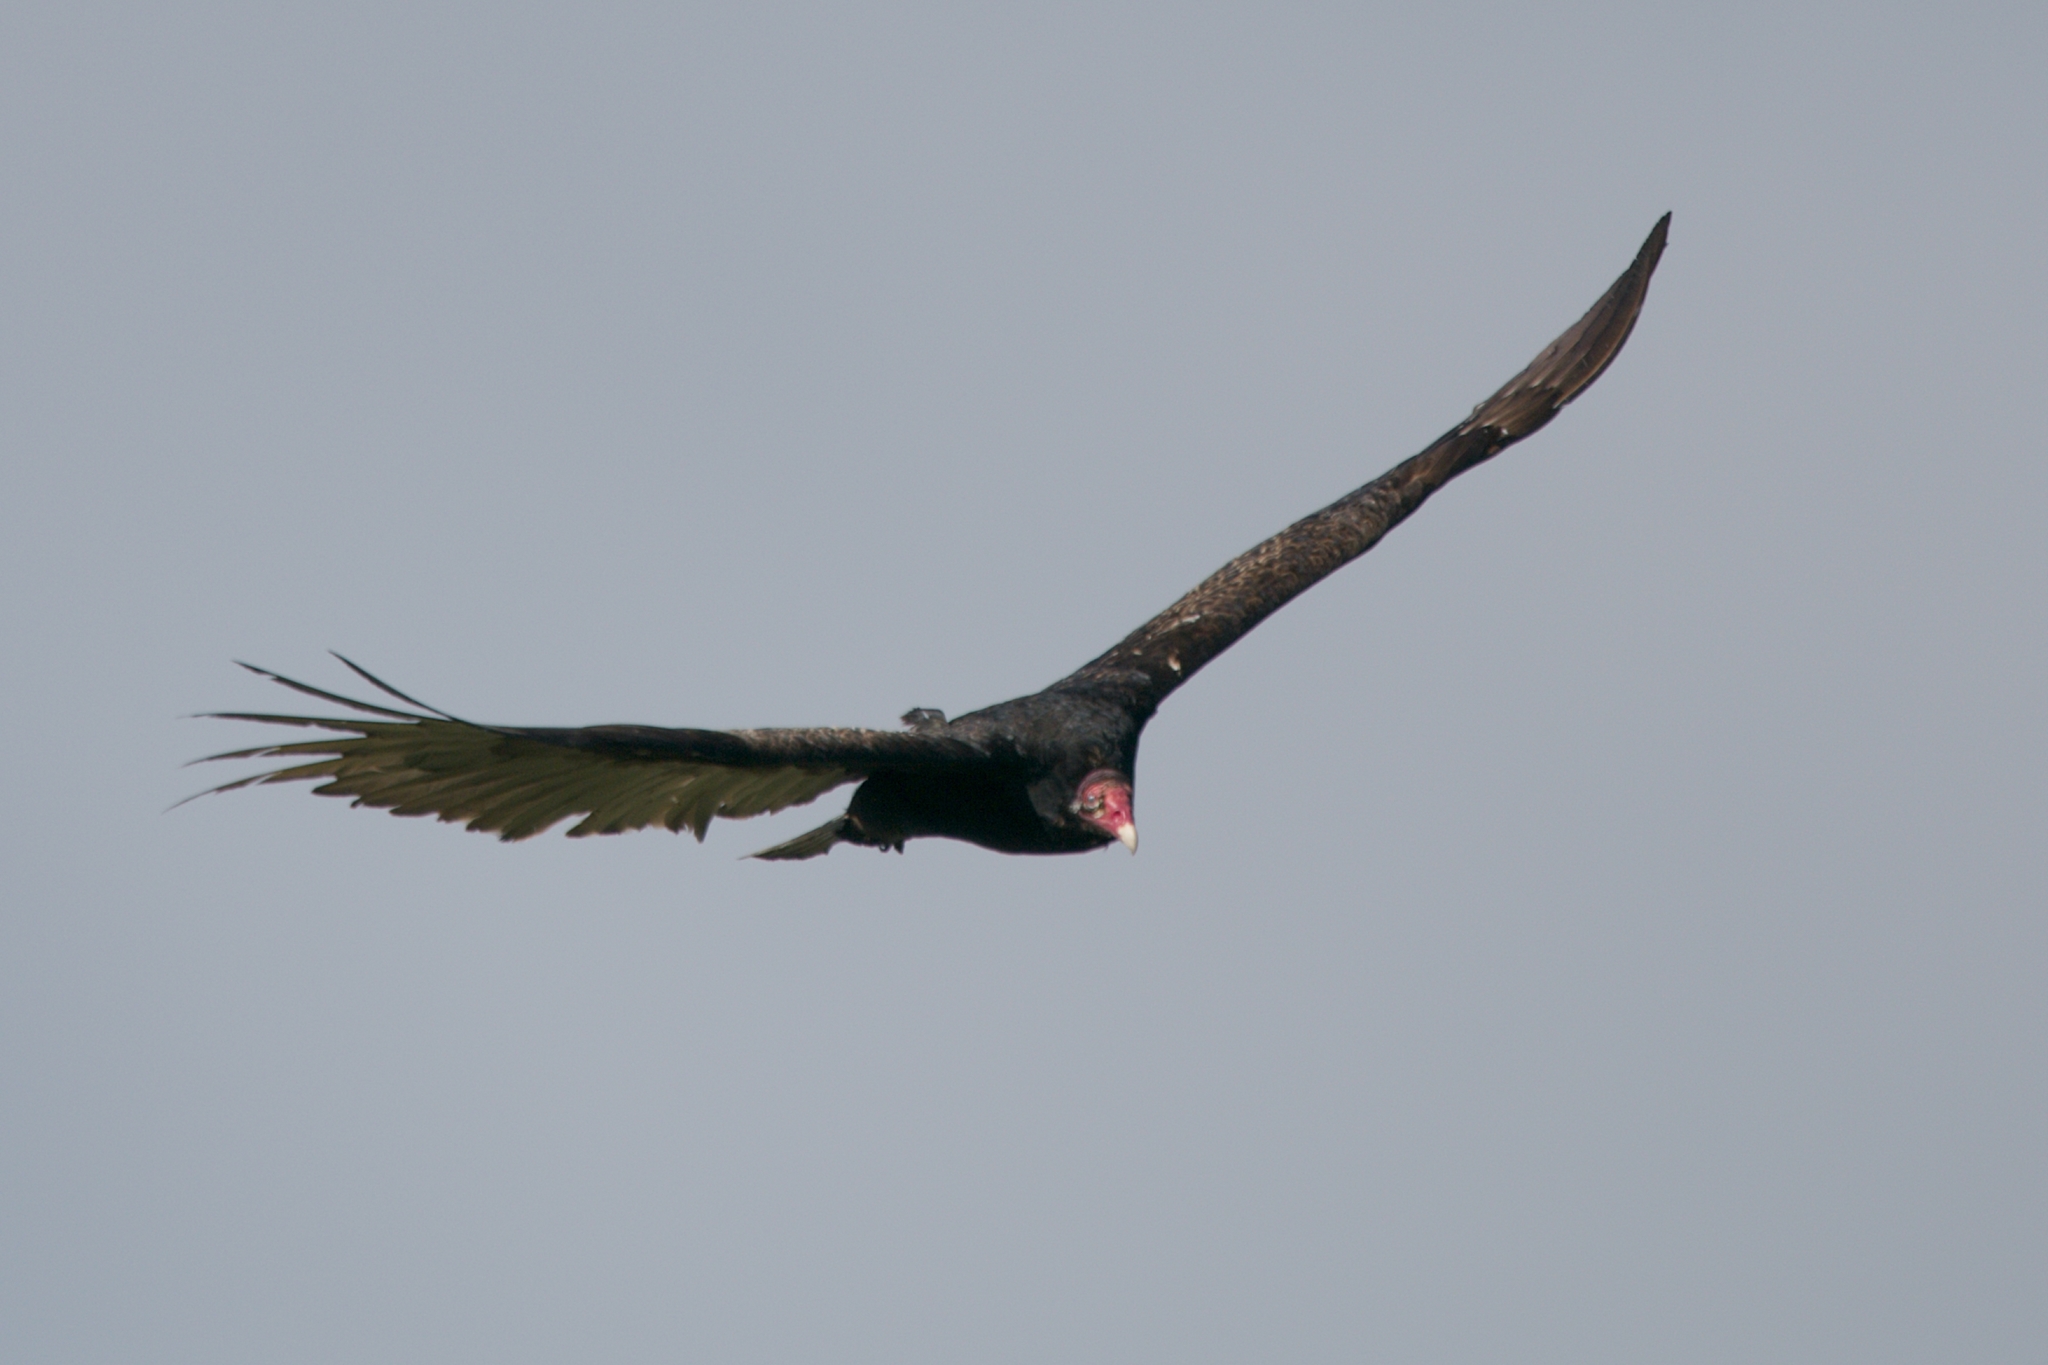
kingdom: Animalia
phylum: Chordata
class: Aves
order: Accipitriformes
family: Cathartidae
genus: Cathartes
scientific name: Cathartes aura
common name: Turkey vulture
